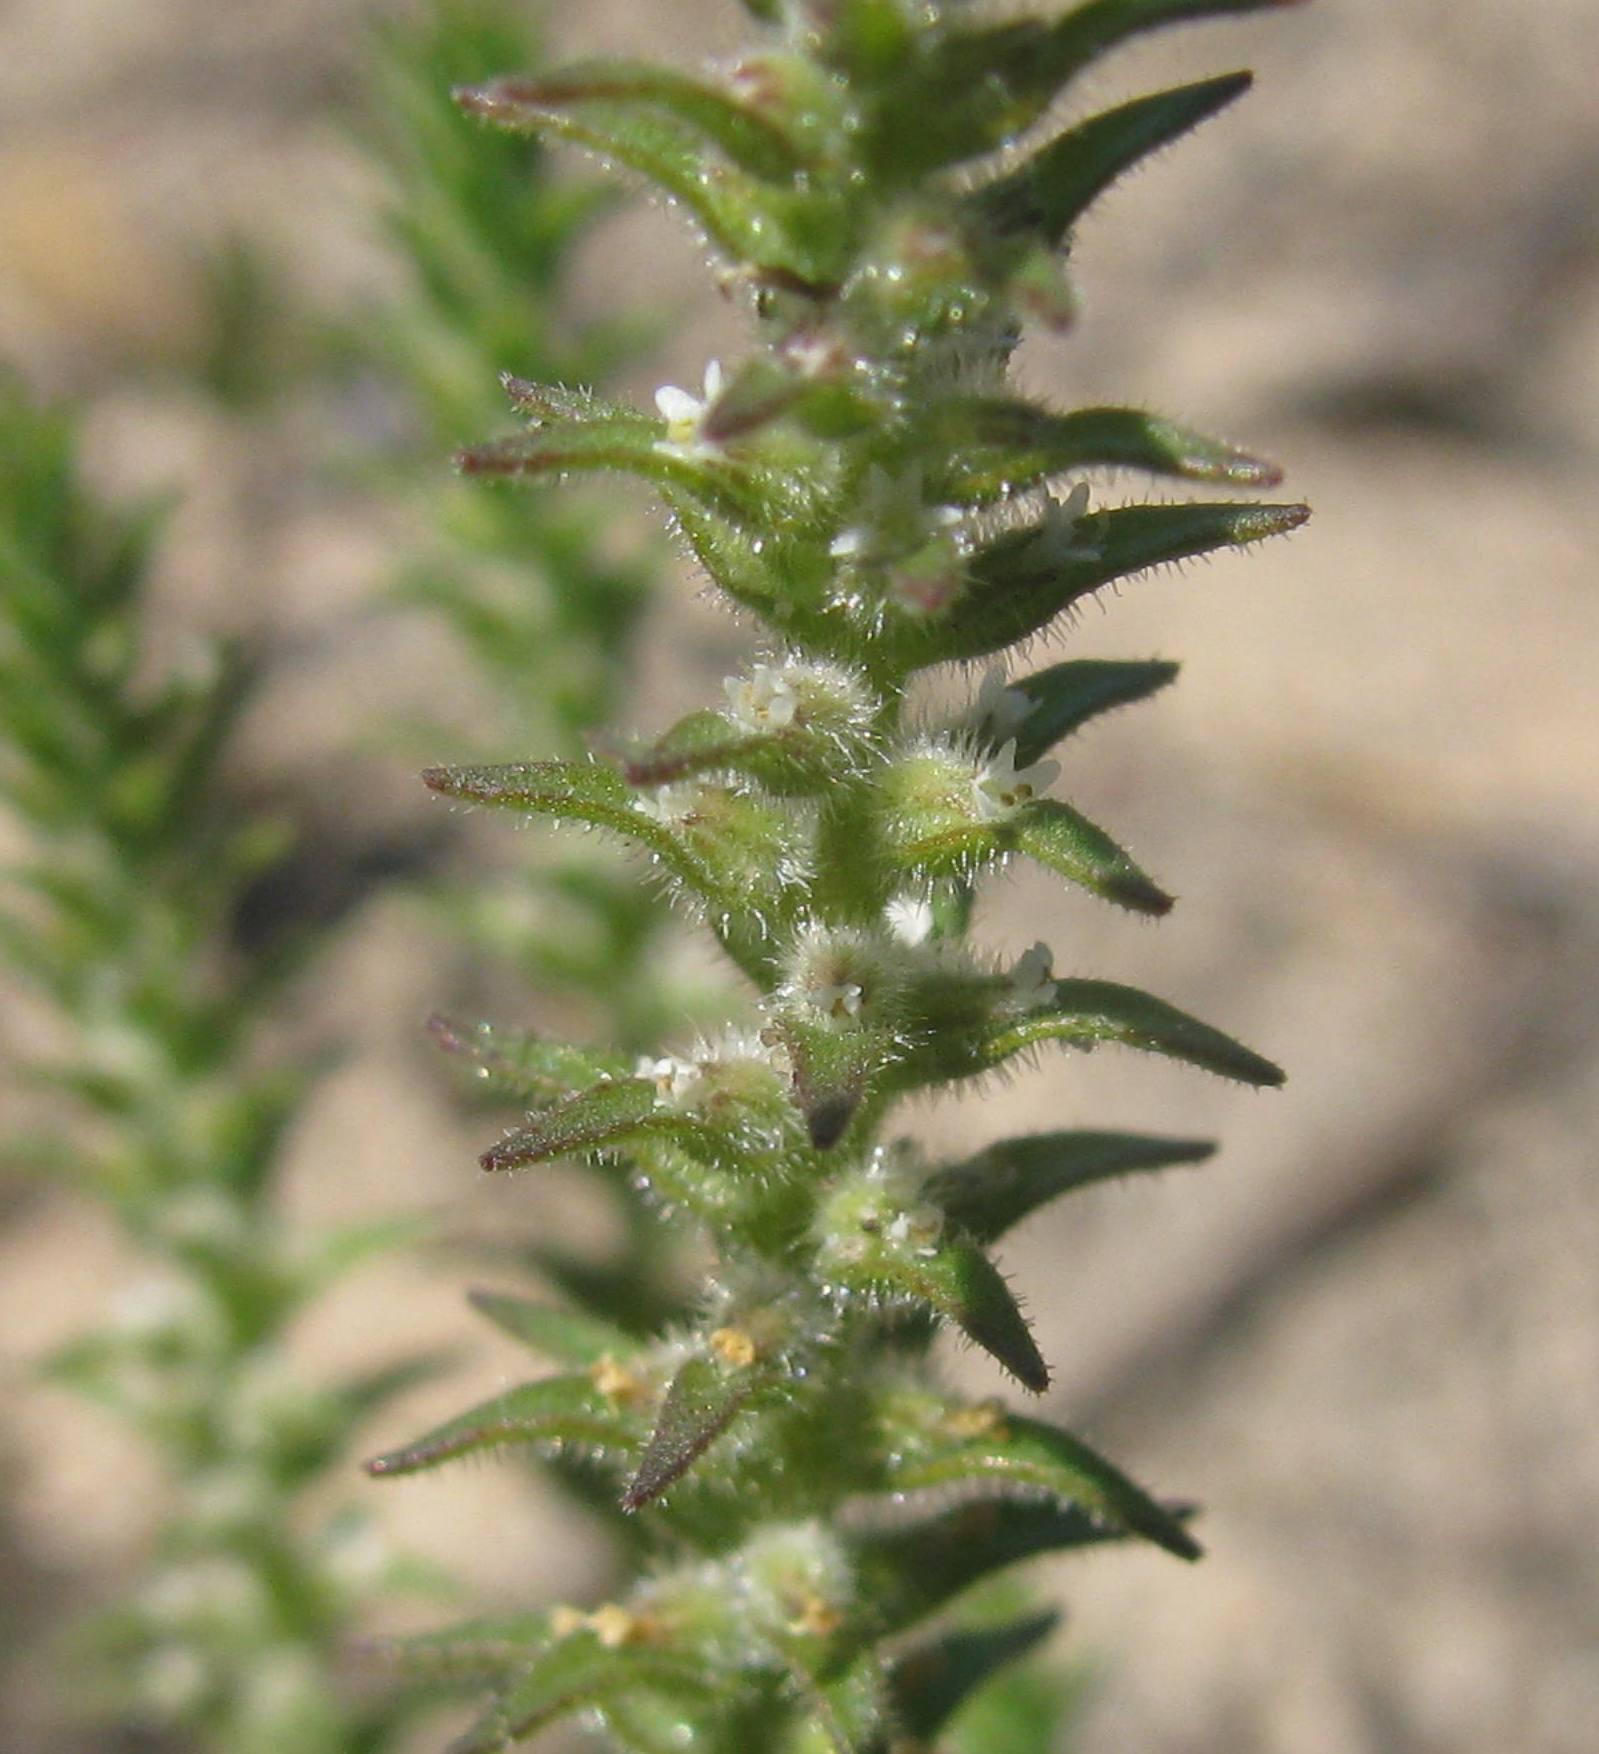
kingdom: Plantae
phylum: Tracheophyta
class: Magnoliopsida
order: Lamiales
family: Scrophulariaceae
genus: Chenopodiopsis
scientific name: Chenopodiopsis hirta
